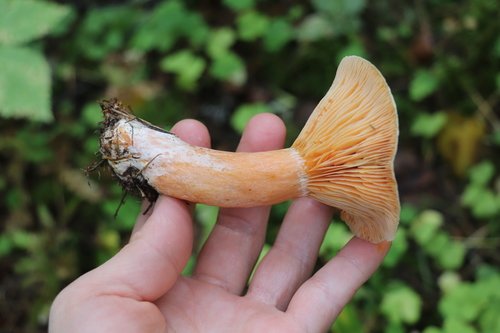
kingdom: Fungi
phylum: Basidiomycota
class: Agaricomycetes
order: Russulales
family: Russulaceae
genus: Lactarius
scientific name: Lactarius deterrimus
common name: False saffron milkcap
